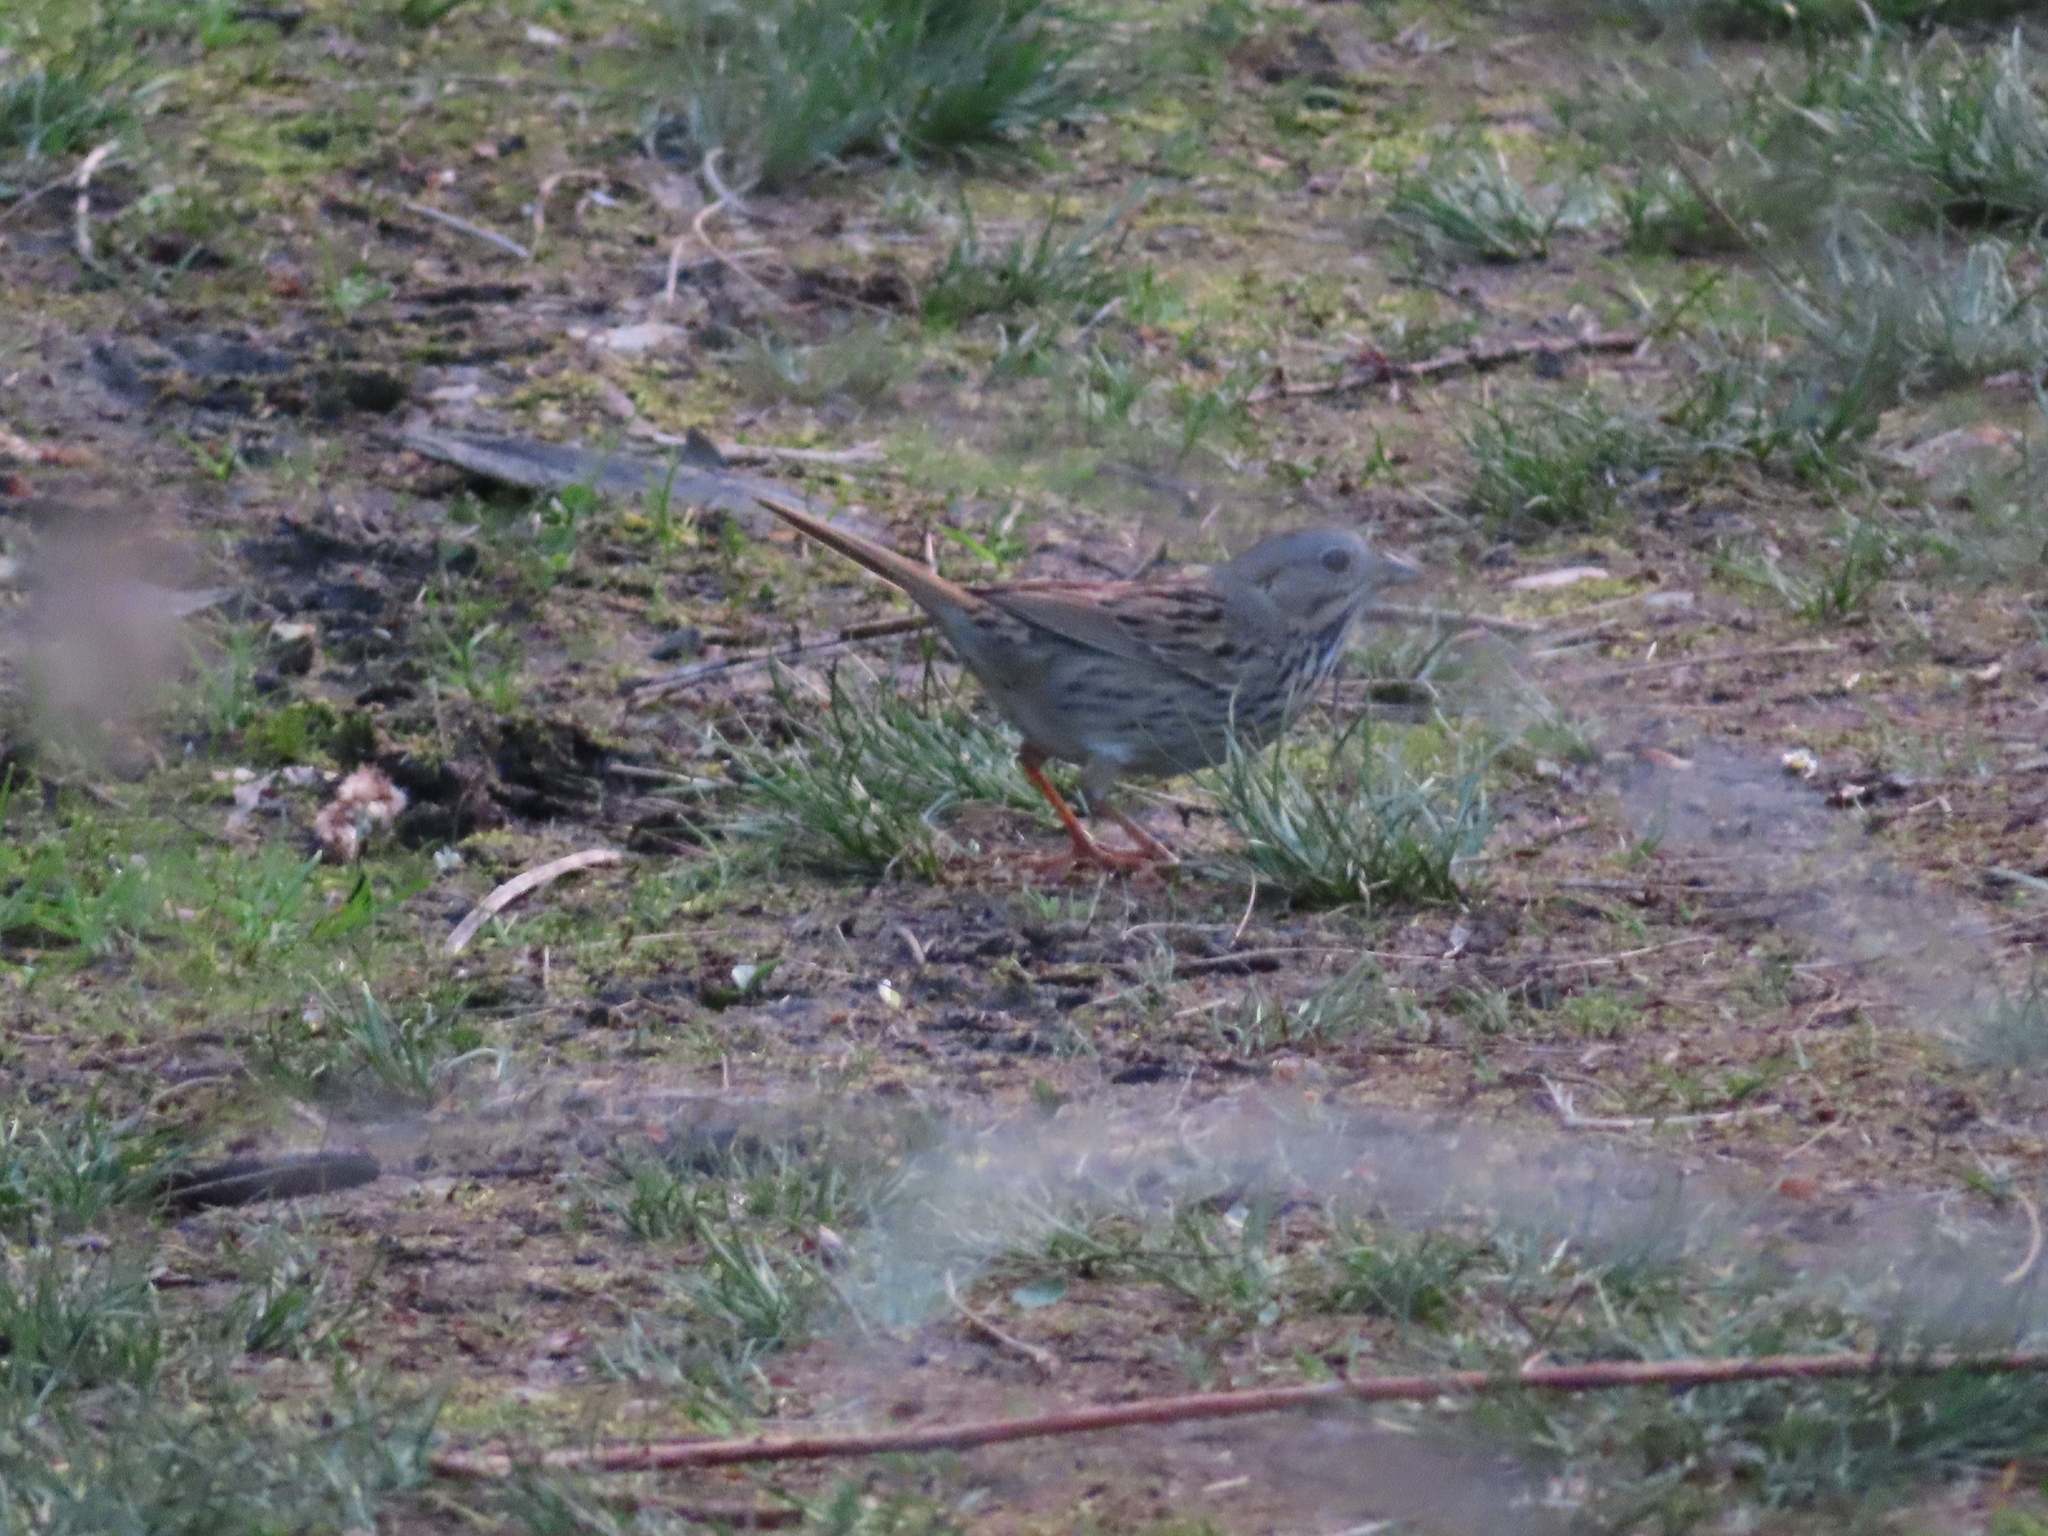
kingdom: Animalia
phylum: Chordata
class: Aves
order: Passeriformes
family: Passerellidae
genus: Melospiza
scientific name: Melospiza lincolnii
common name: Lincoln's sparrow
